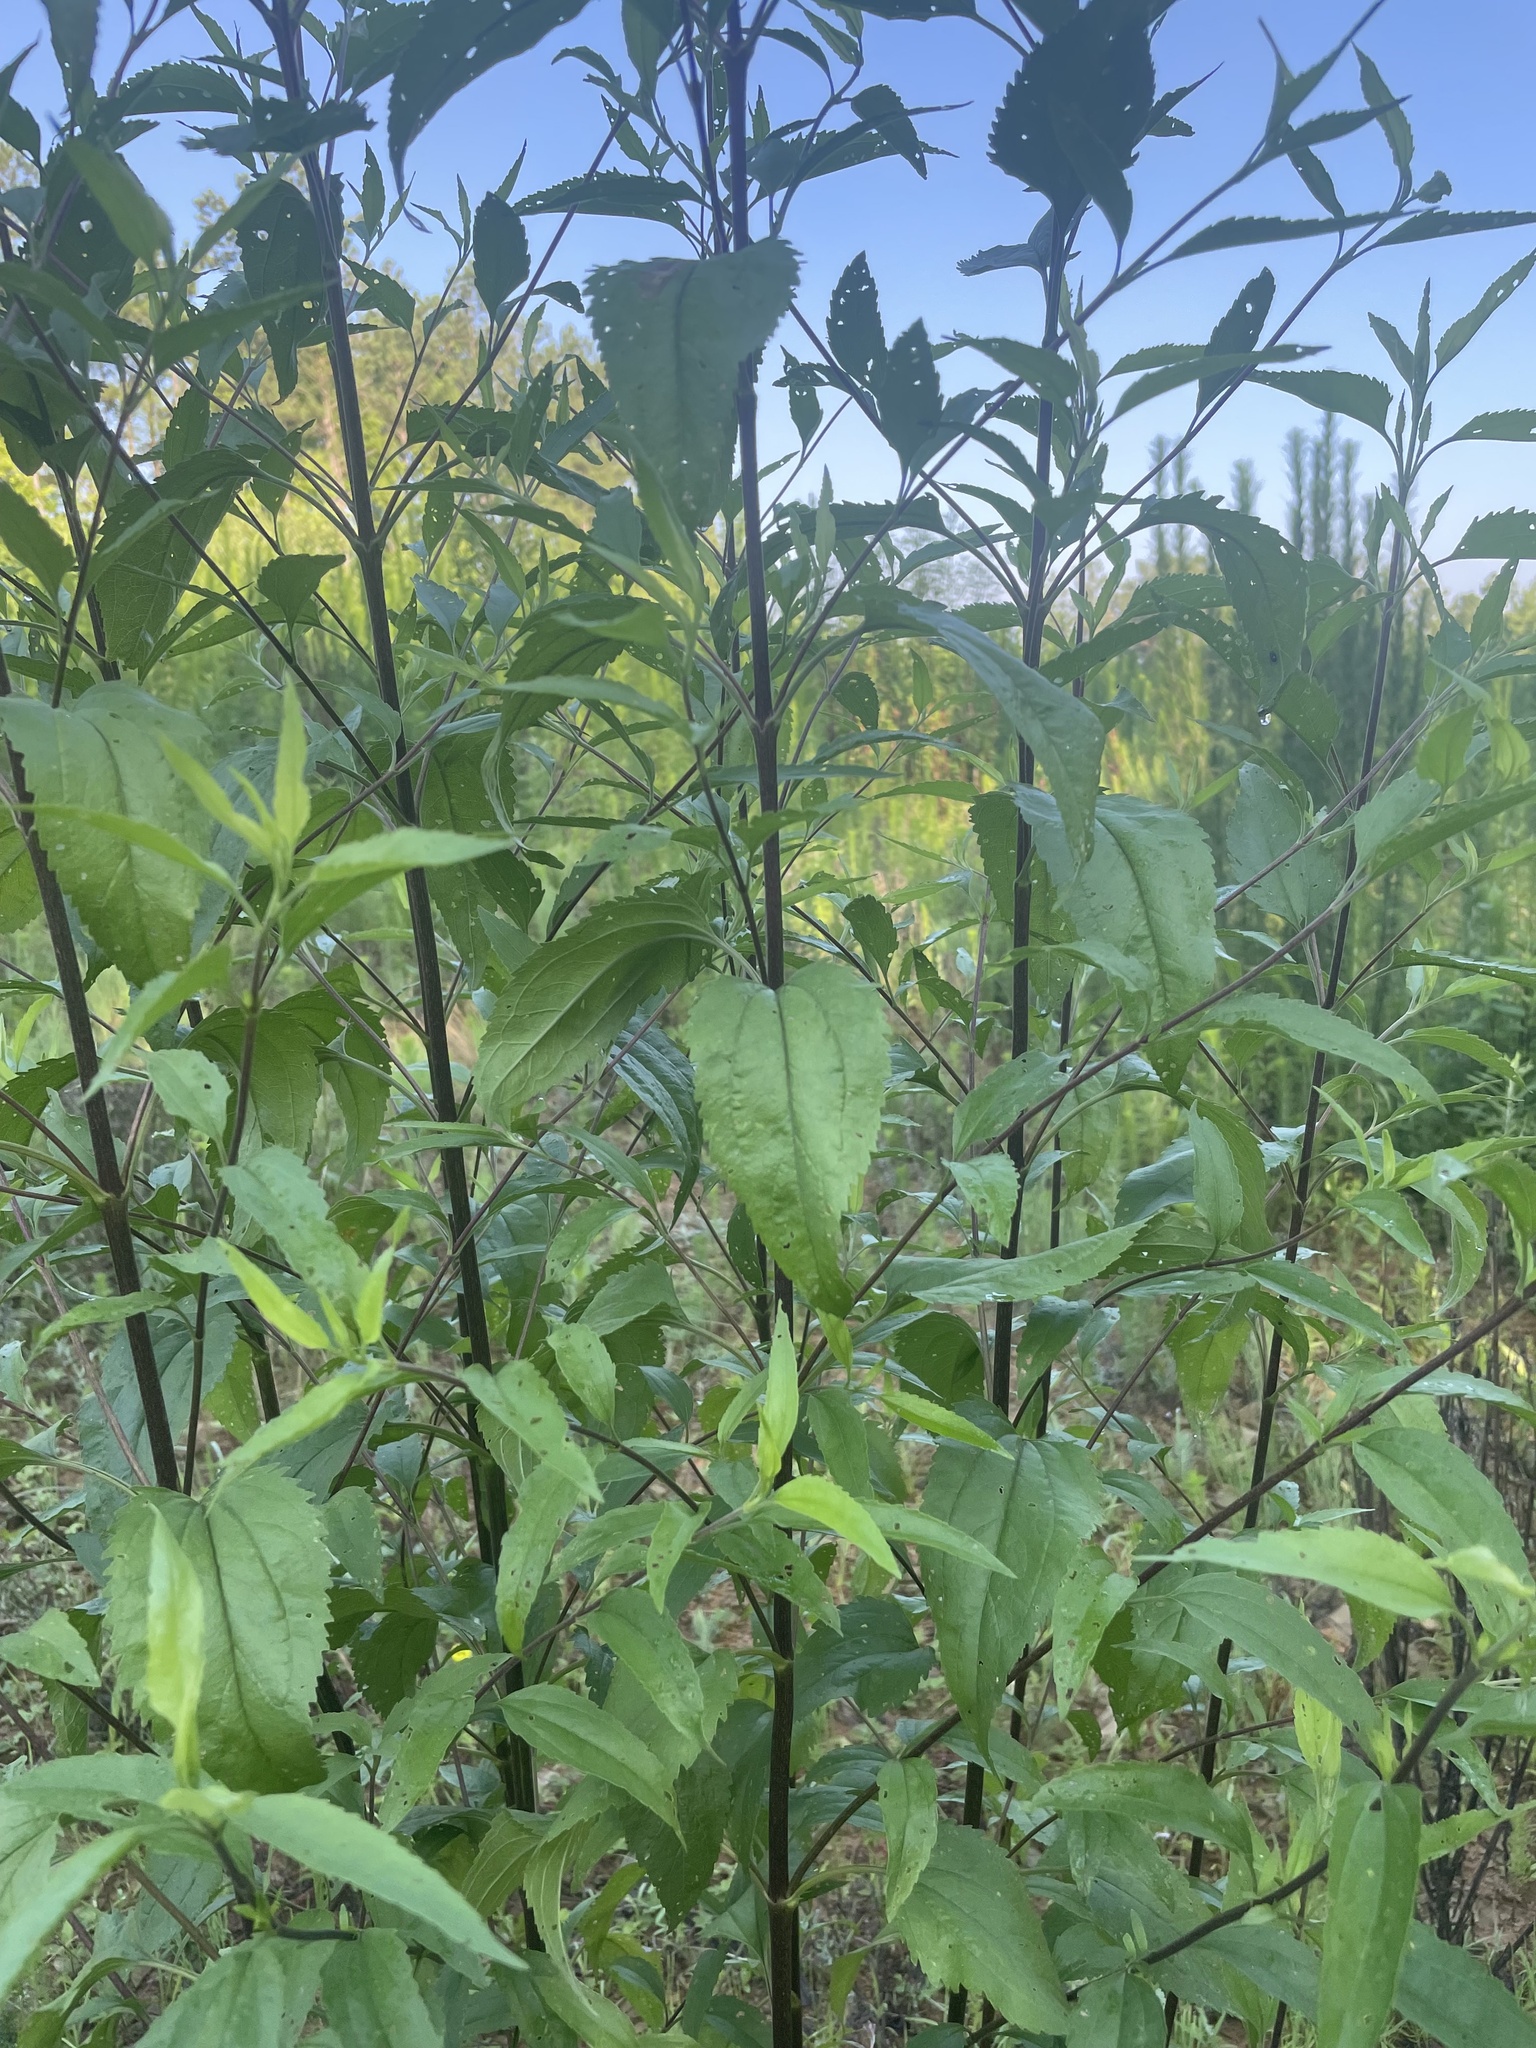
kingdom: Plantae
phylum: Tracheophyta
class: Magnoliopsida
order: Asterales
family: Asteraceae
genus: Eupatorium
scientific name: Eupatorium serotinum
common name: Late boneset
